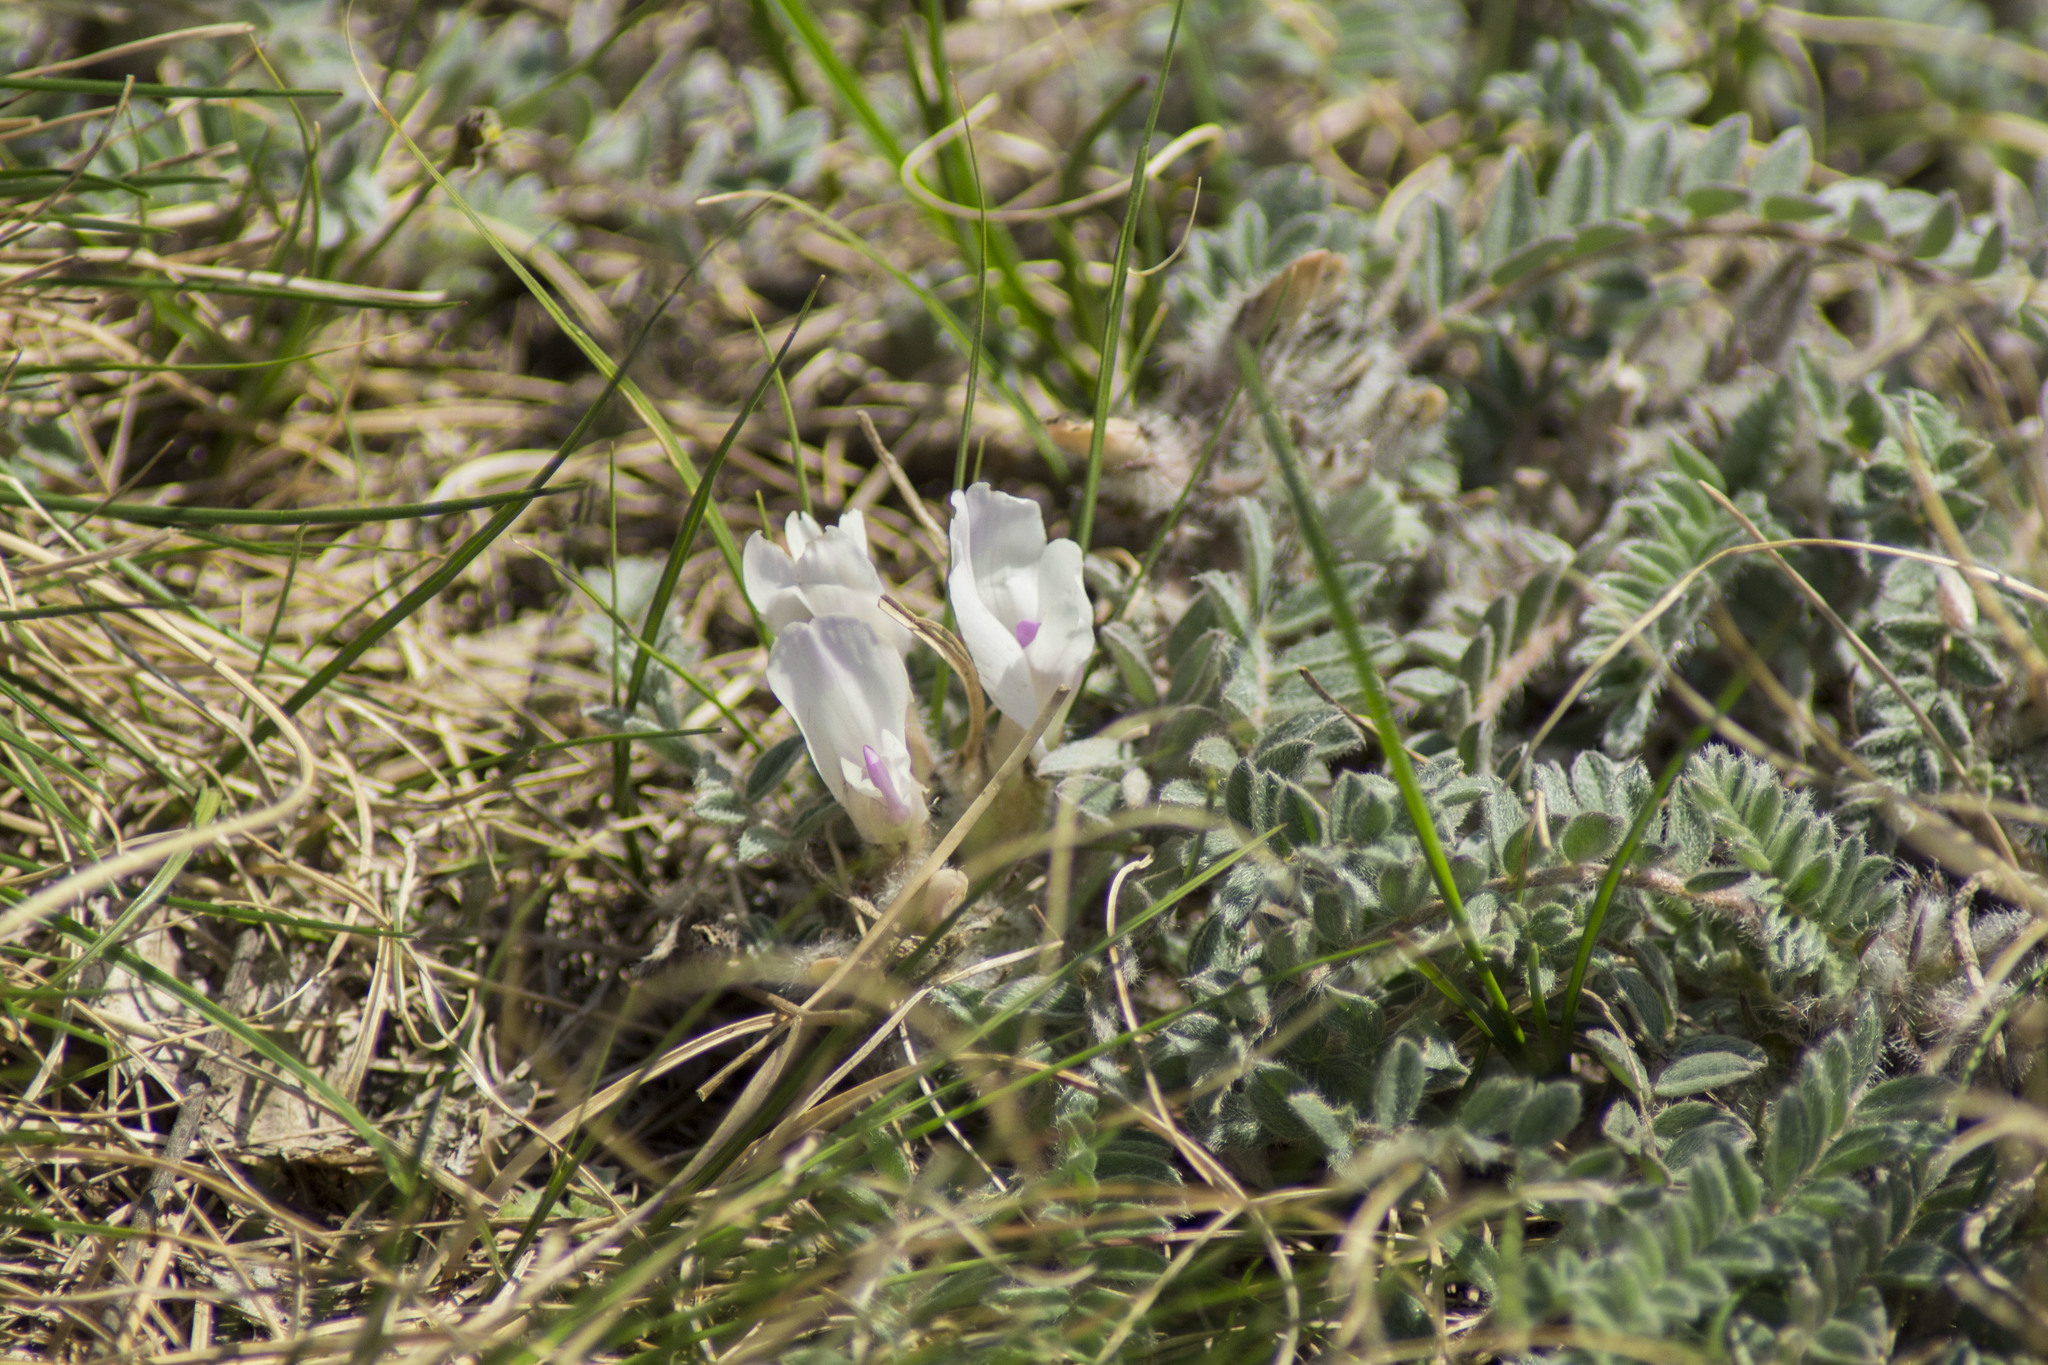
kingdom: Plantae
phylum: Tracheophyta
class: Magnoliopsida
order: Fabales
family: Fabaceae
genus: Astragalus
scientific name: Astragalus testiculatus
